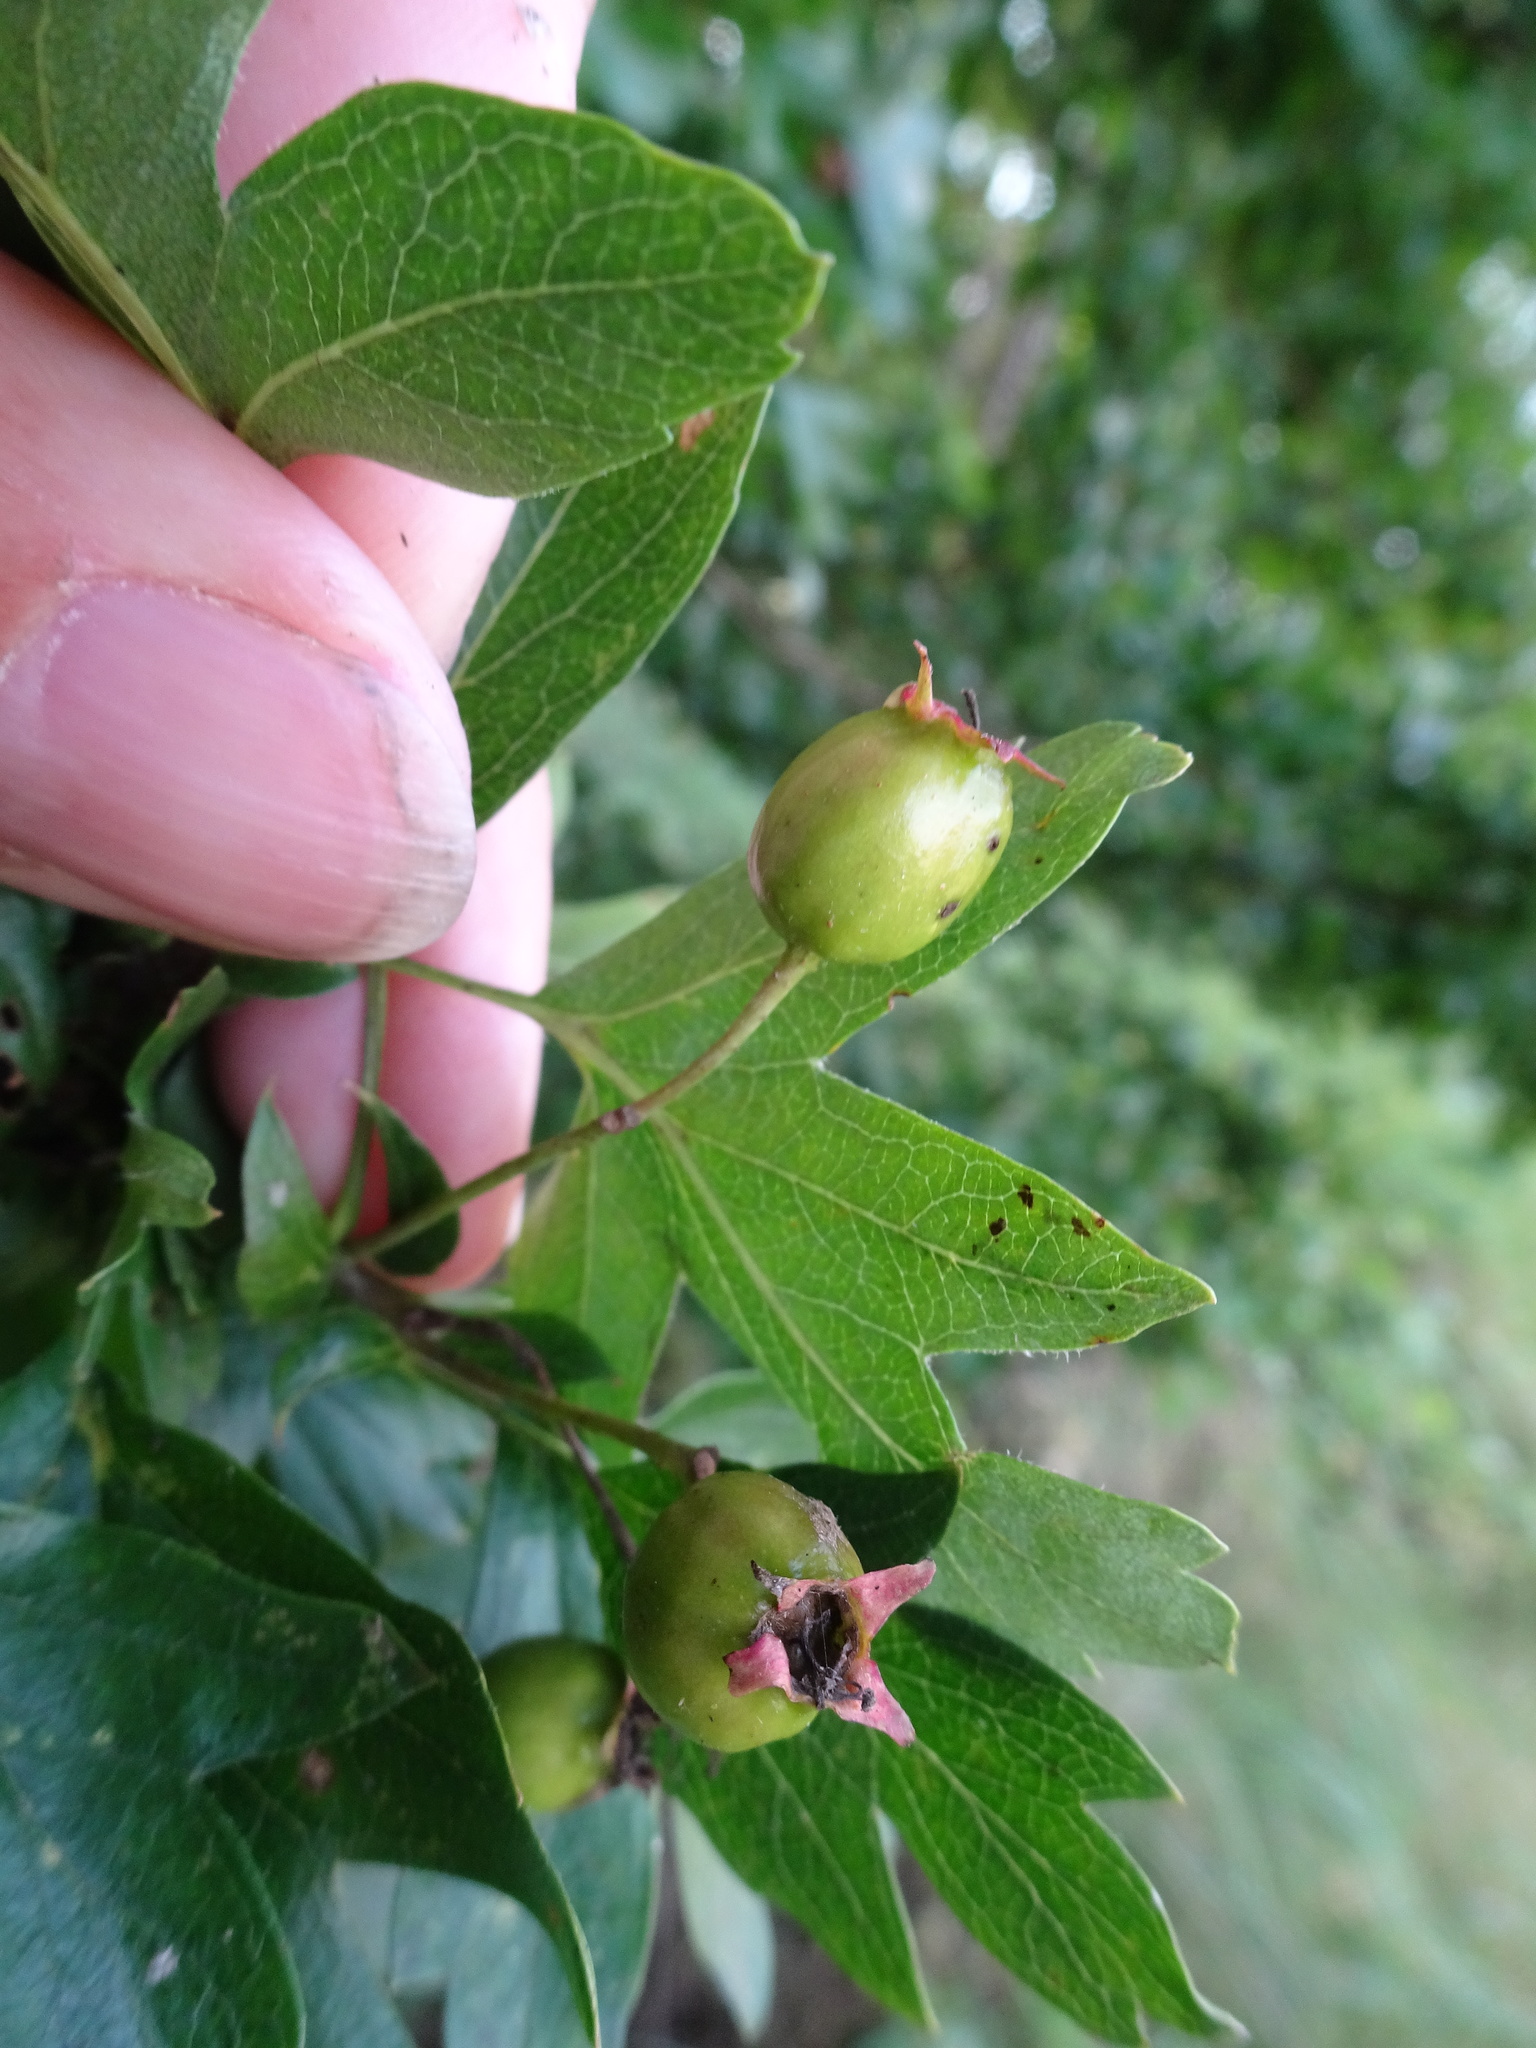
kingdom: Plantae
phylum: Tracheophyta
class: Magnoliopsida
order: Rosales
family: Rosaceae
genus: Crataegus
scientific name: Crataegus monogyna
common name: Hawthorn
